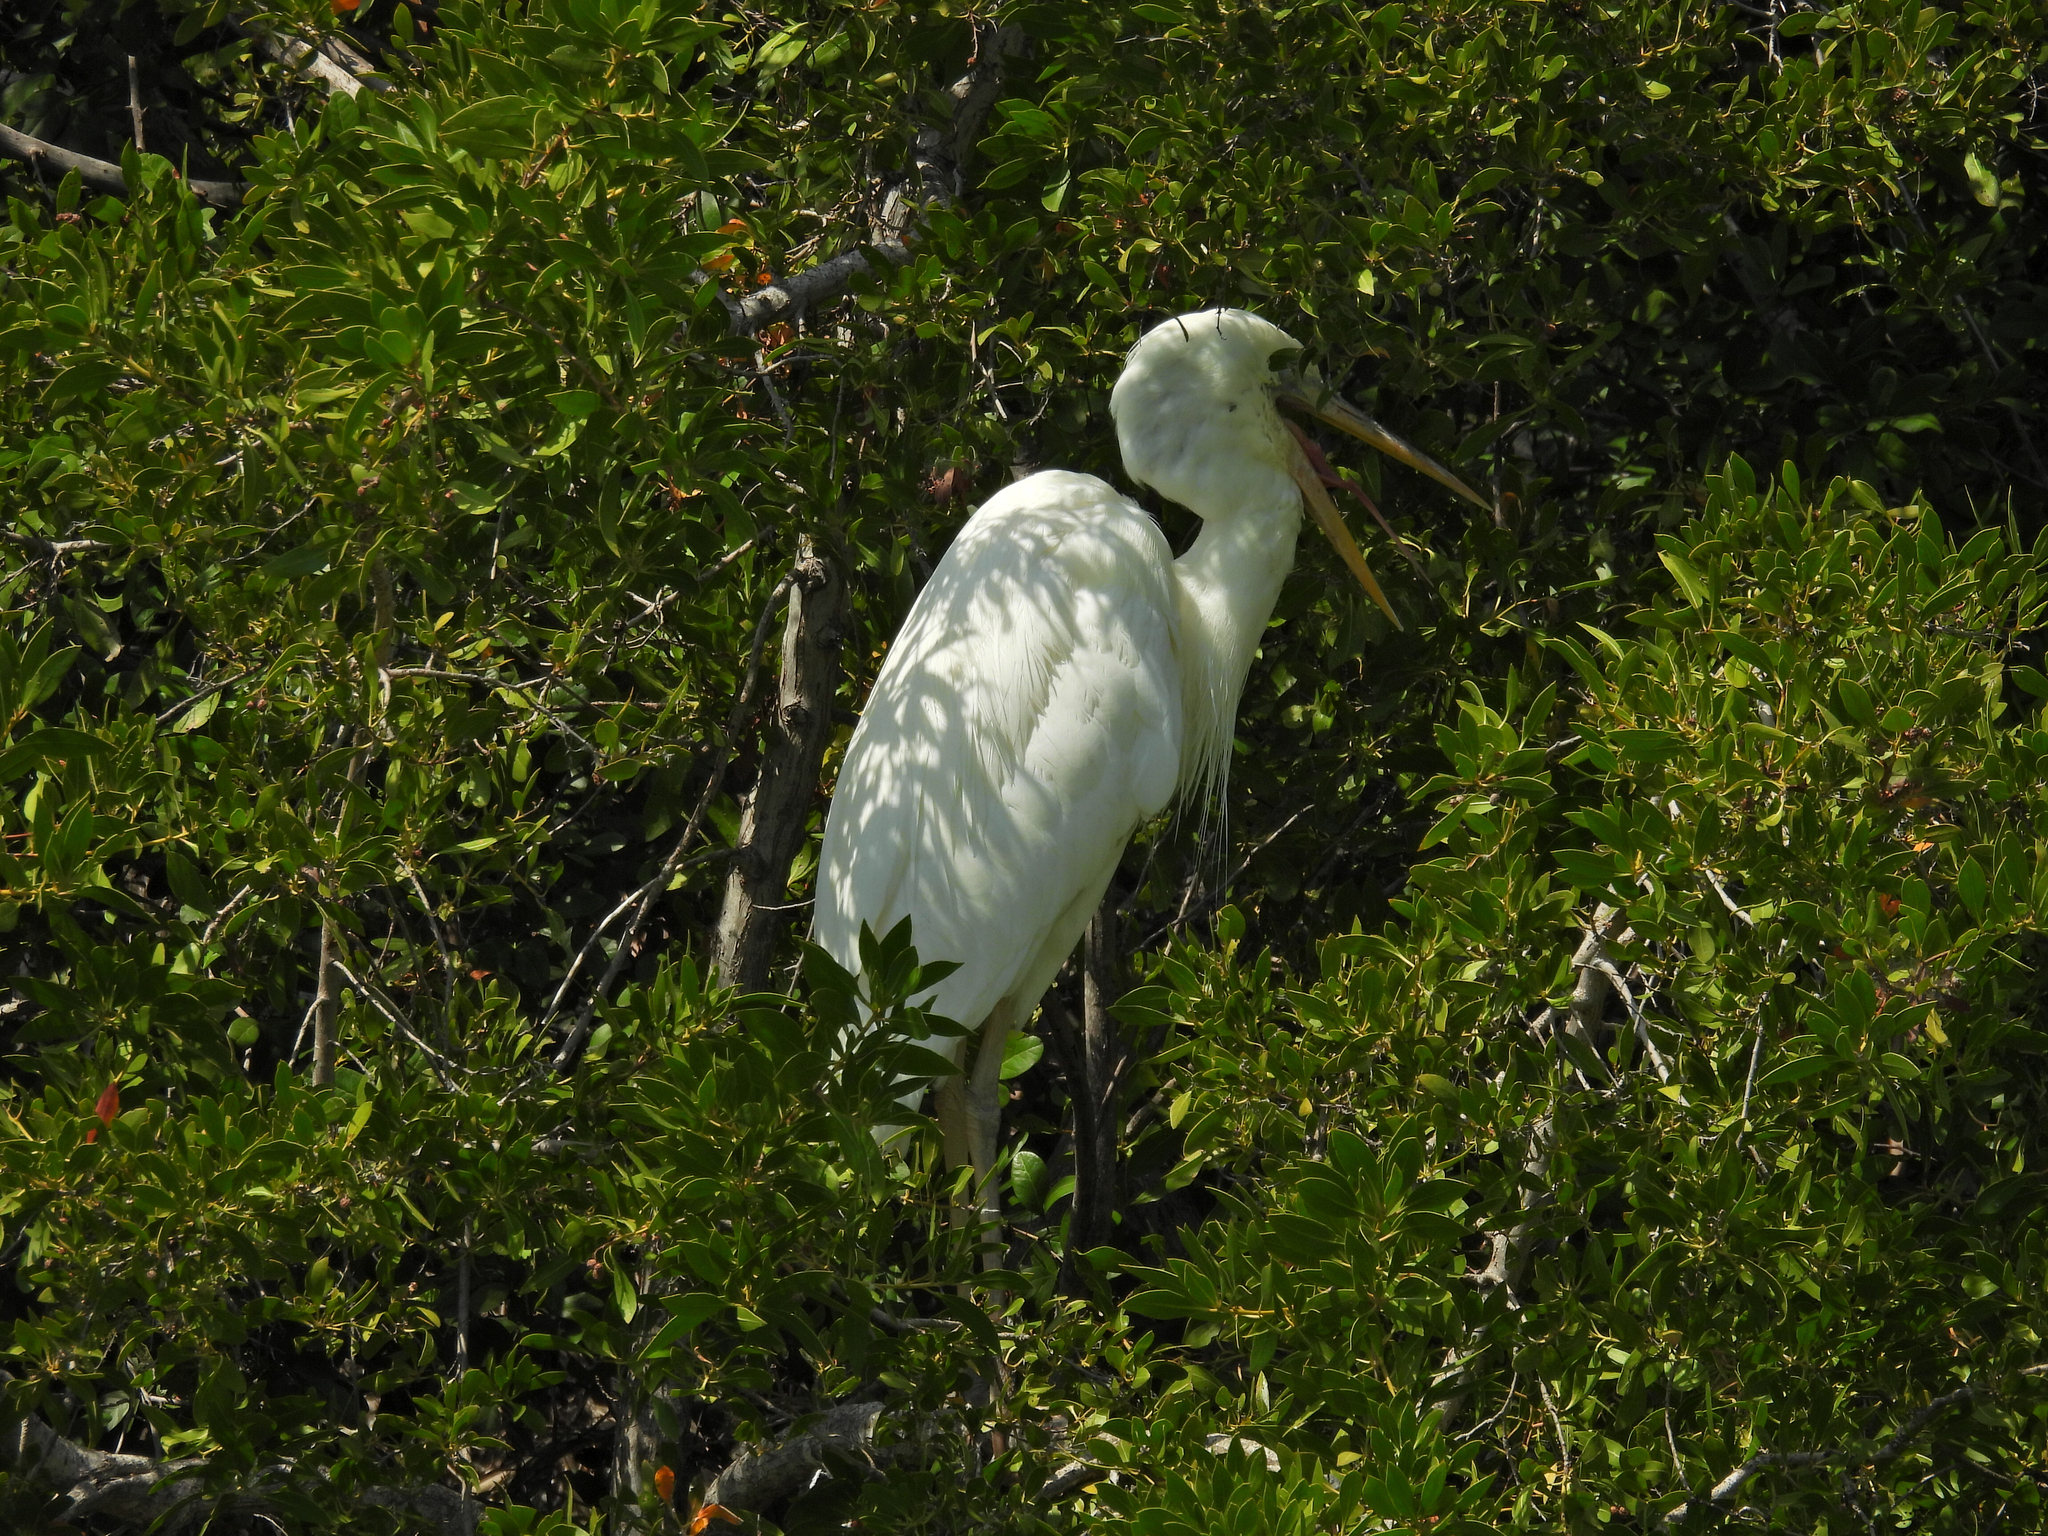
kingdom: Animalia
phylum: Chordata
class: Aves
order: Pelecaniformes
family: Ardeidae
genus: Ardea
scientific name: Ardea herodias
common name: Great blue heron
